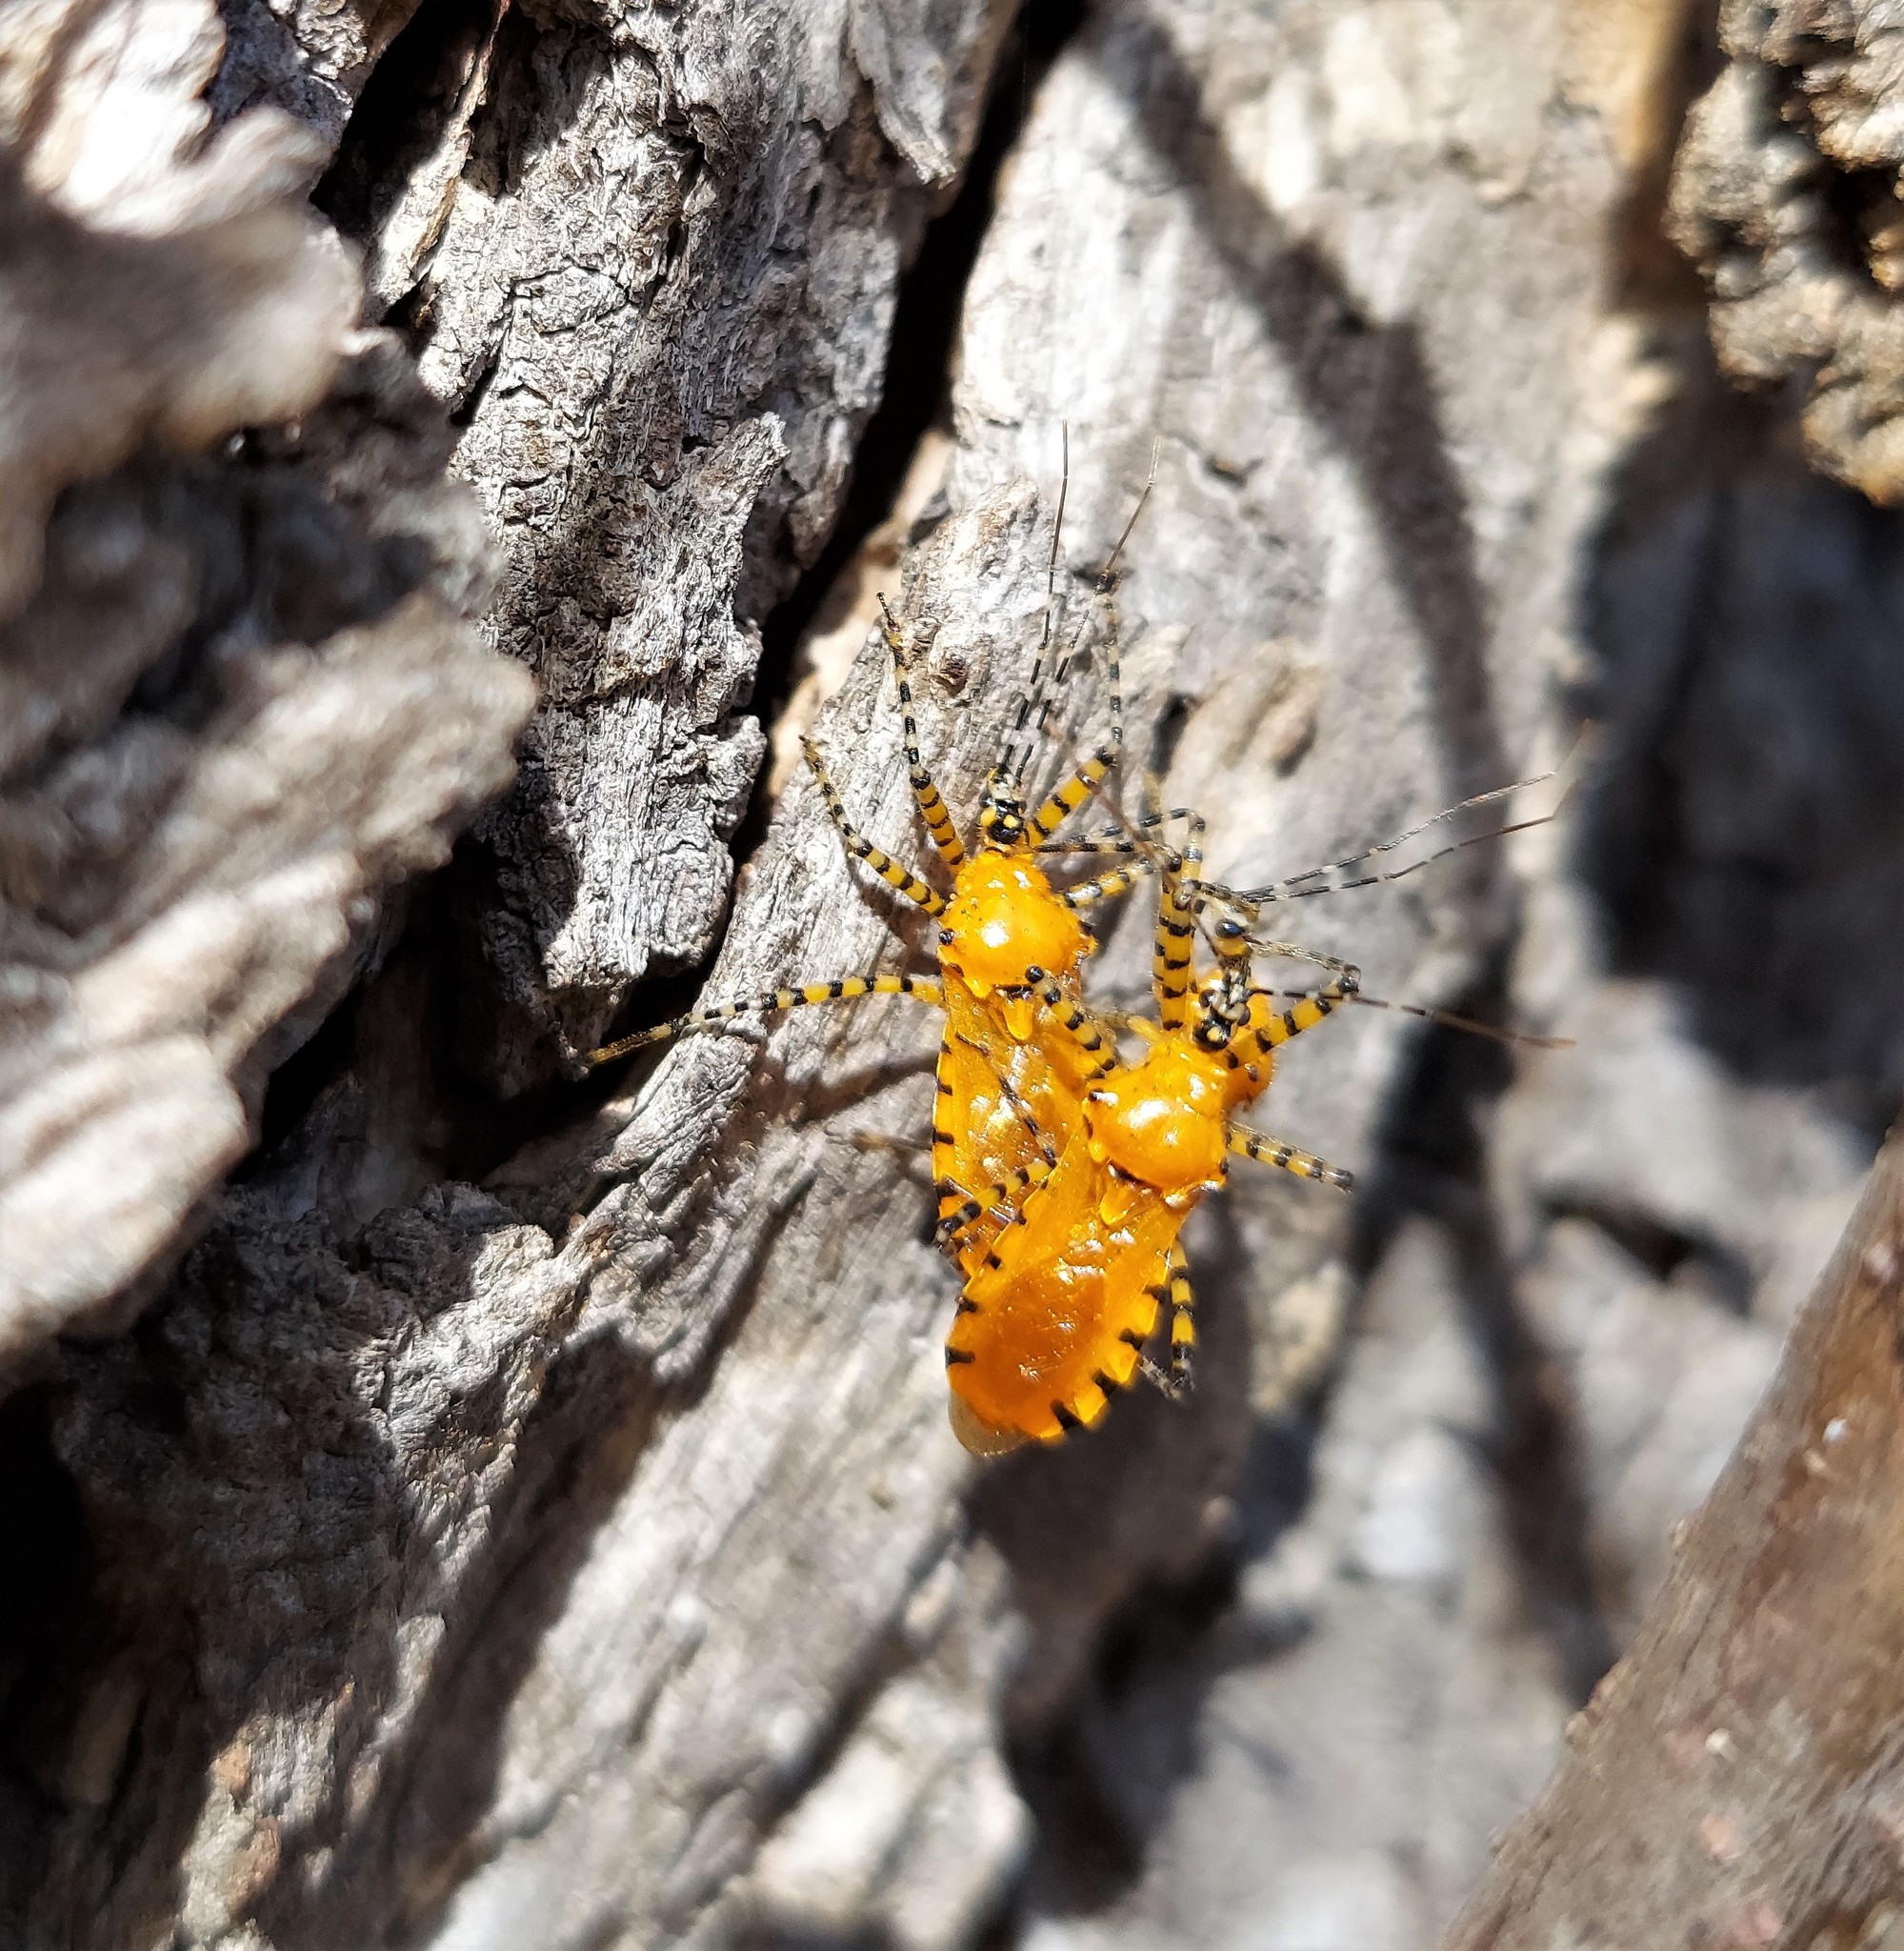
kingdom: Animalia
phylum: Arthropoda
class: Insecta
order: Hemiptera
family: Reduviidae
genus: Pselliopus
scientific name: Pselliopus barberi
